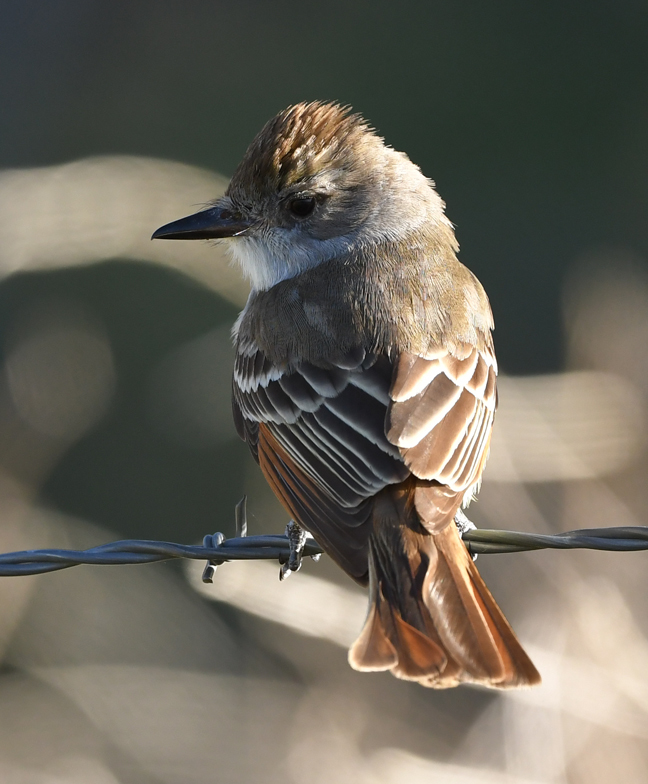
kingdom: Animalia
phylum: Chordata
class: Aves
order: Passeriformes
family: Tyrannidae
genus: Myiarchus
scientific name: Myiarchus cinerascens
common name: Ash-throated flycatcher
